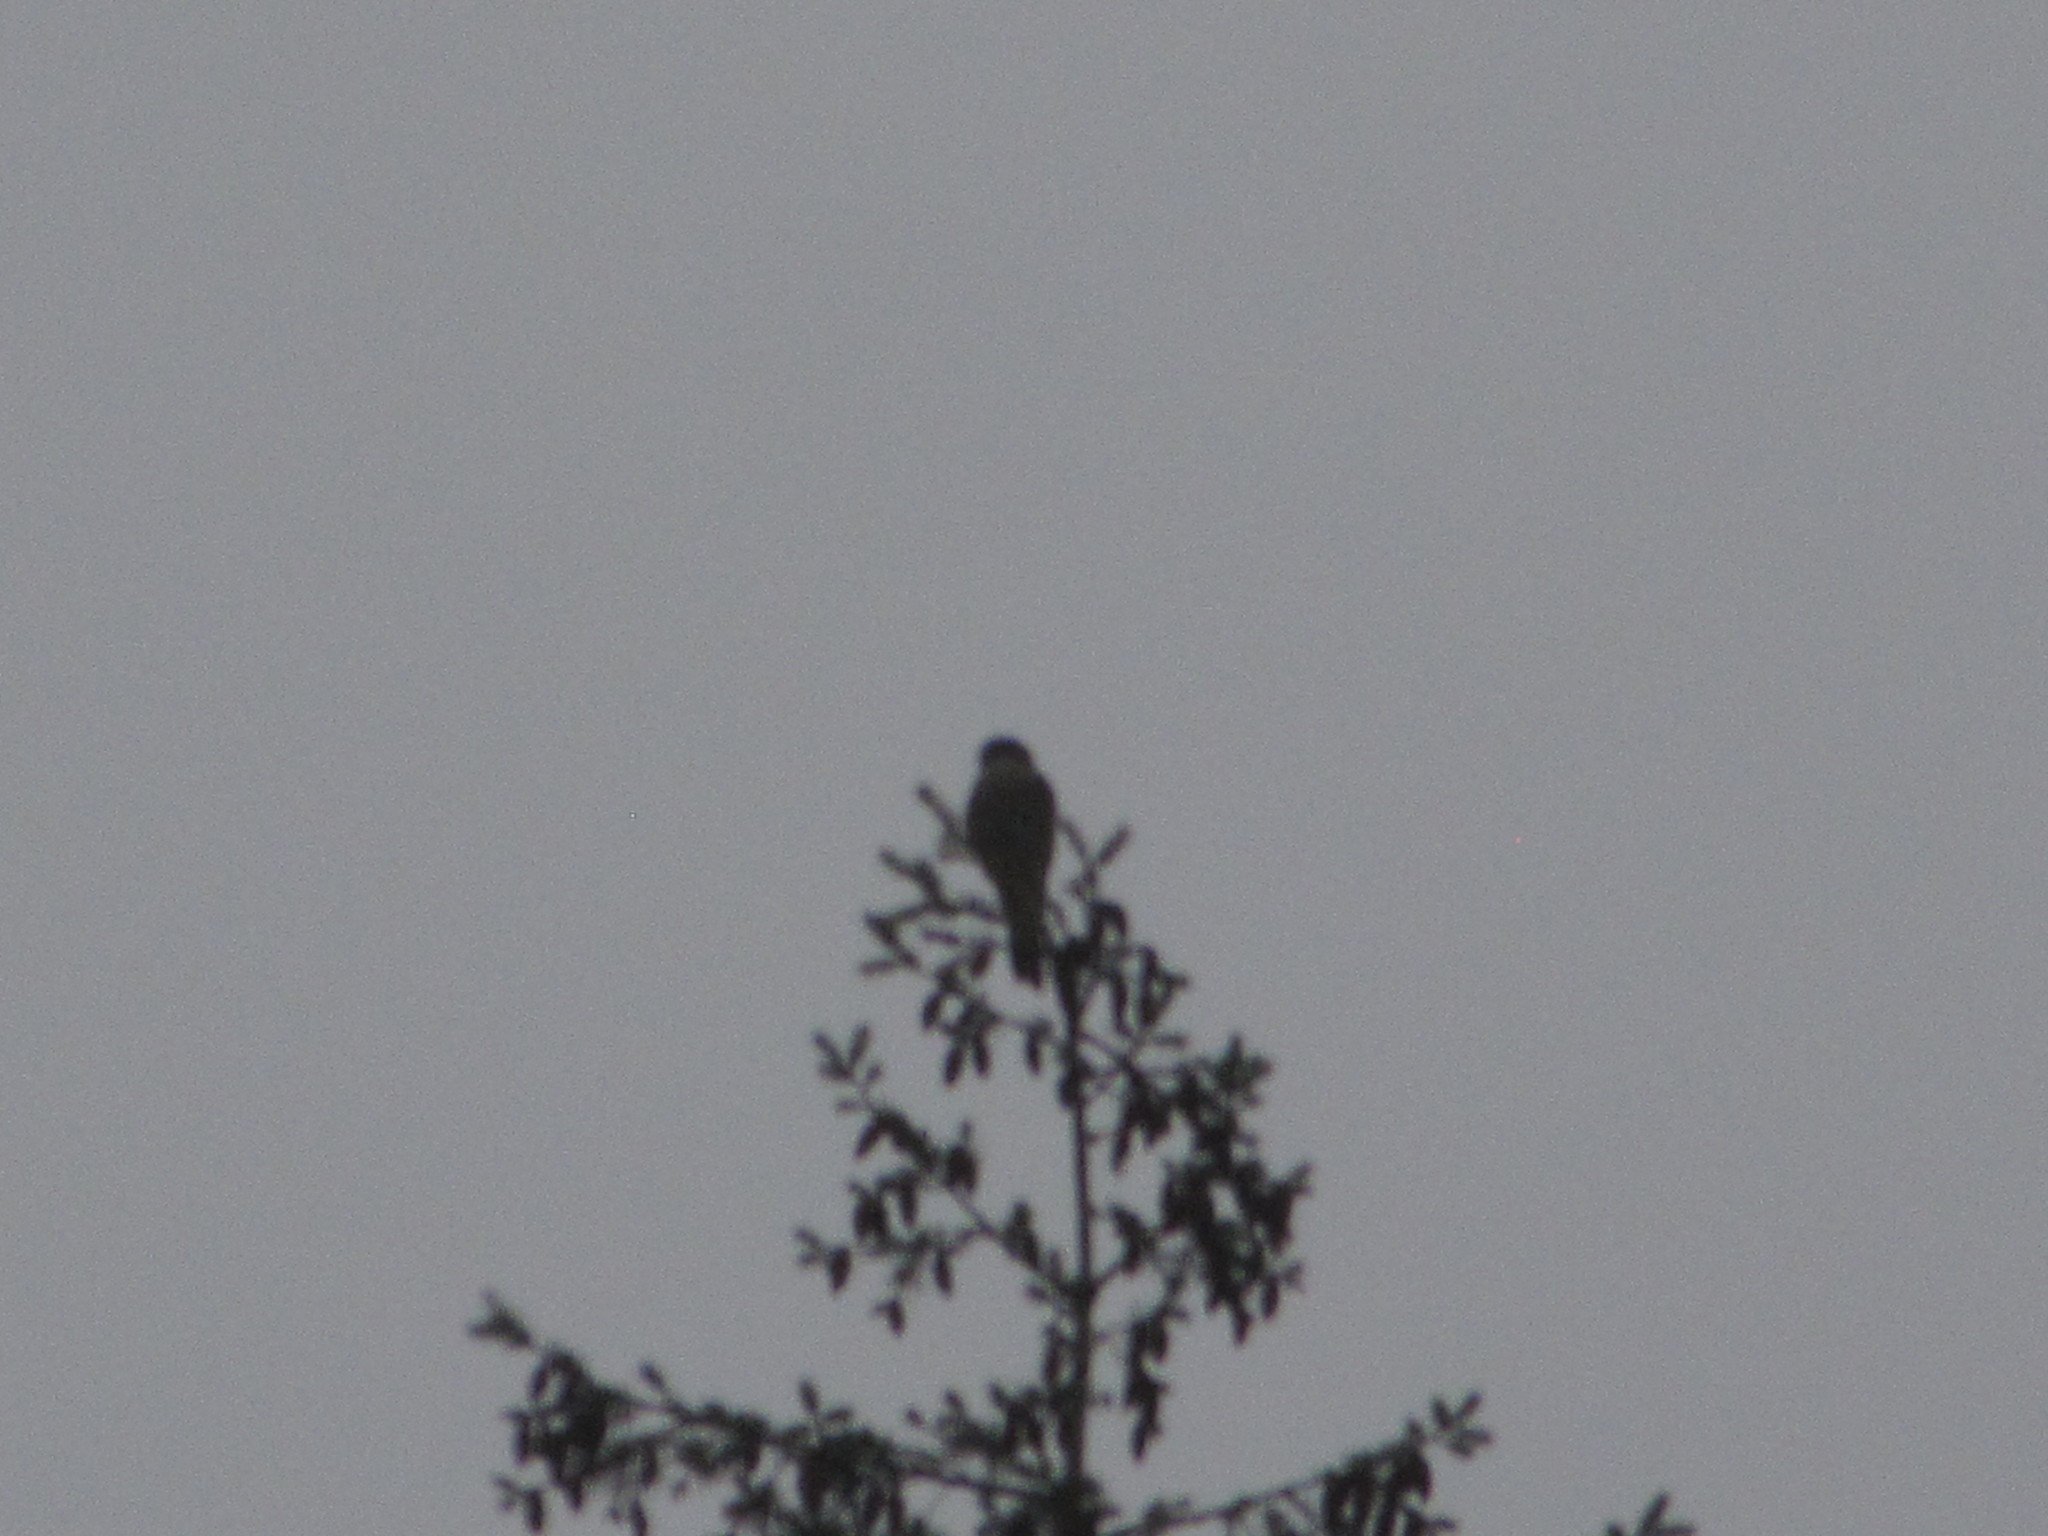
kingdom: Animalia
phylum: Chordata
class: Aves
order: Falconiformes
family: Falconidae
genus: Falco
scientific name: Falco columbarius
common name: Merlin
